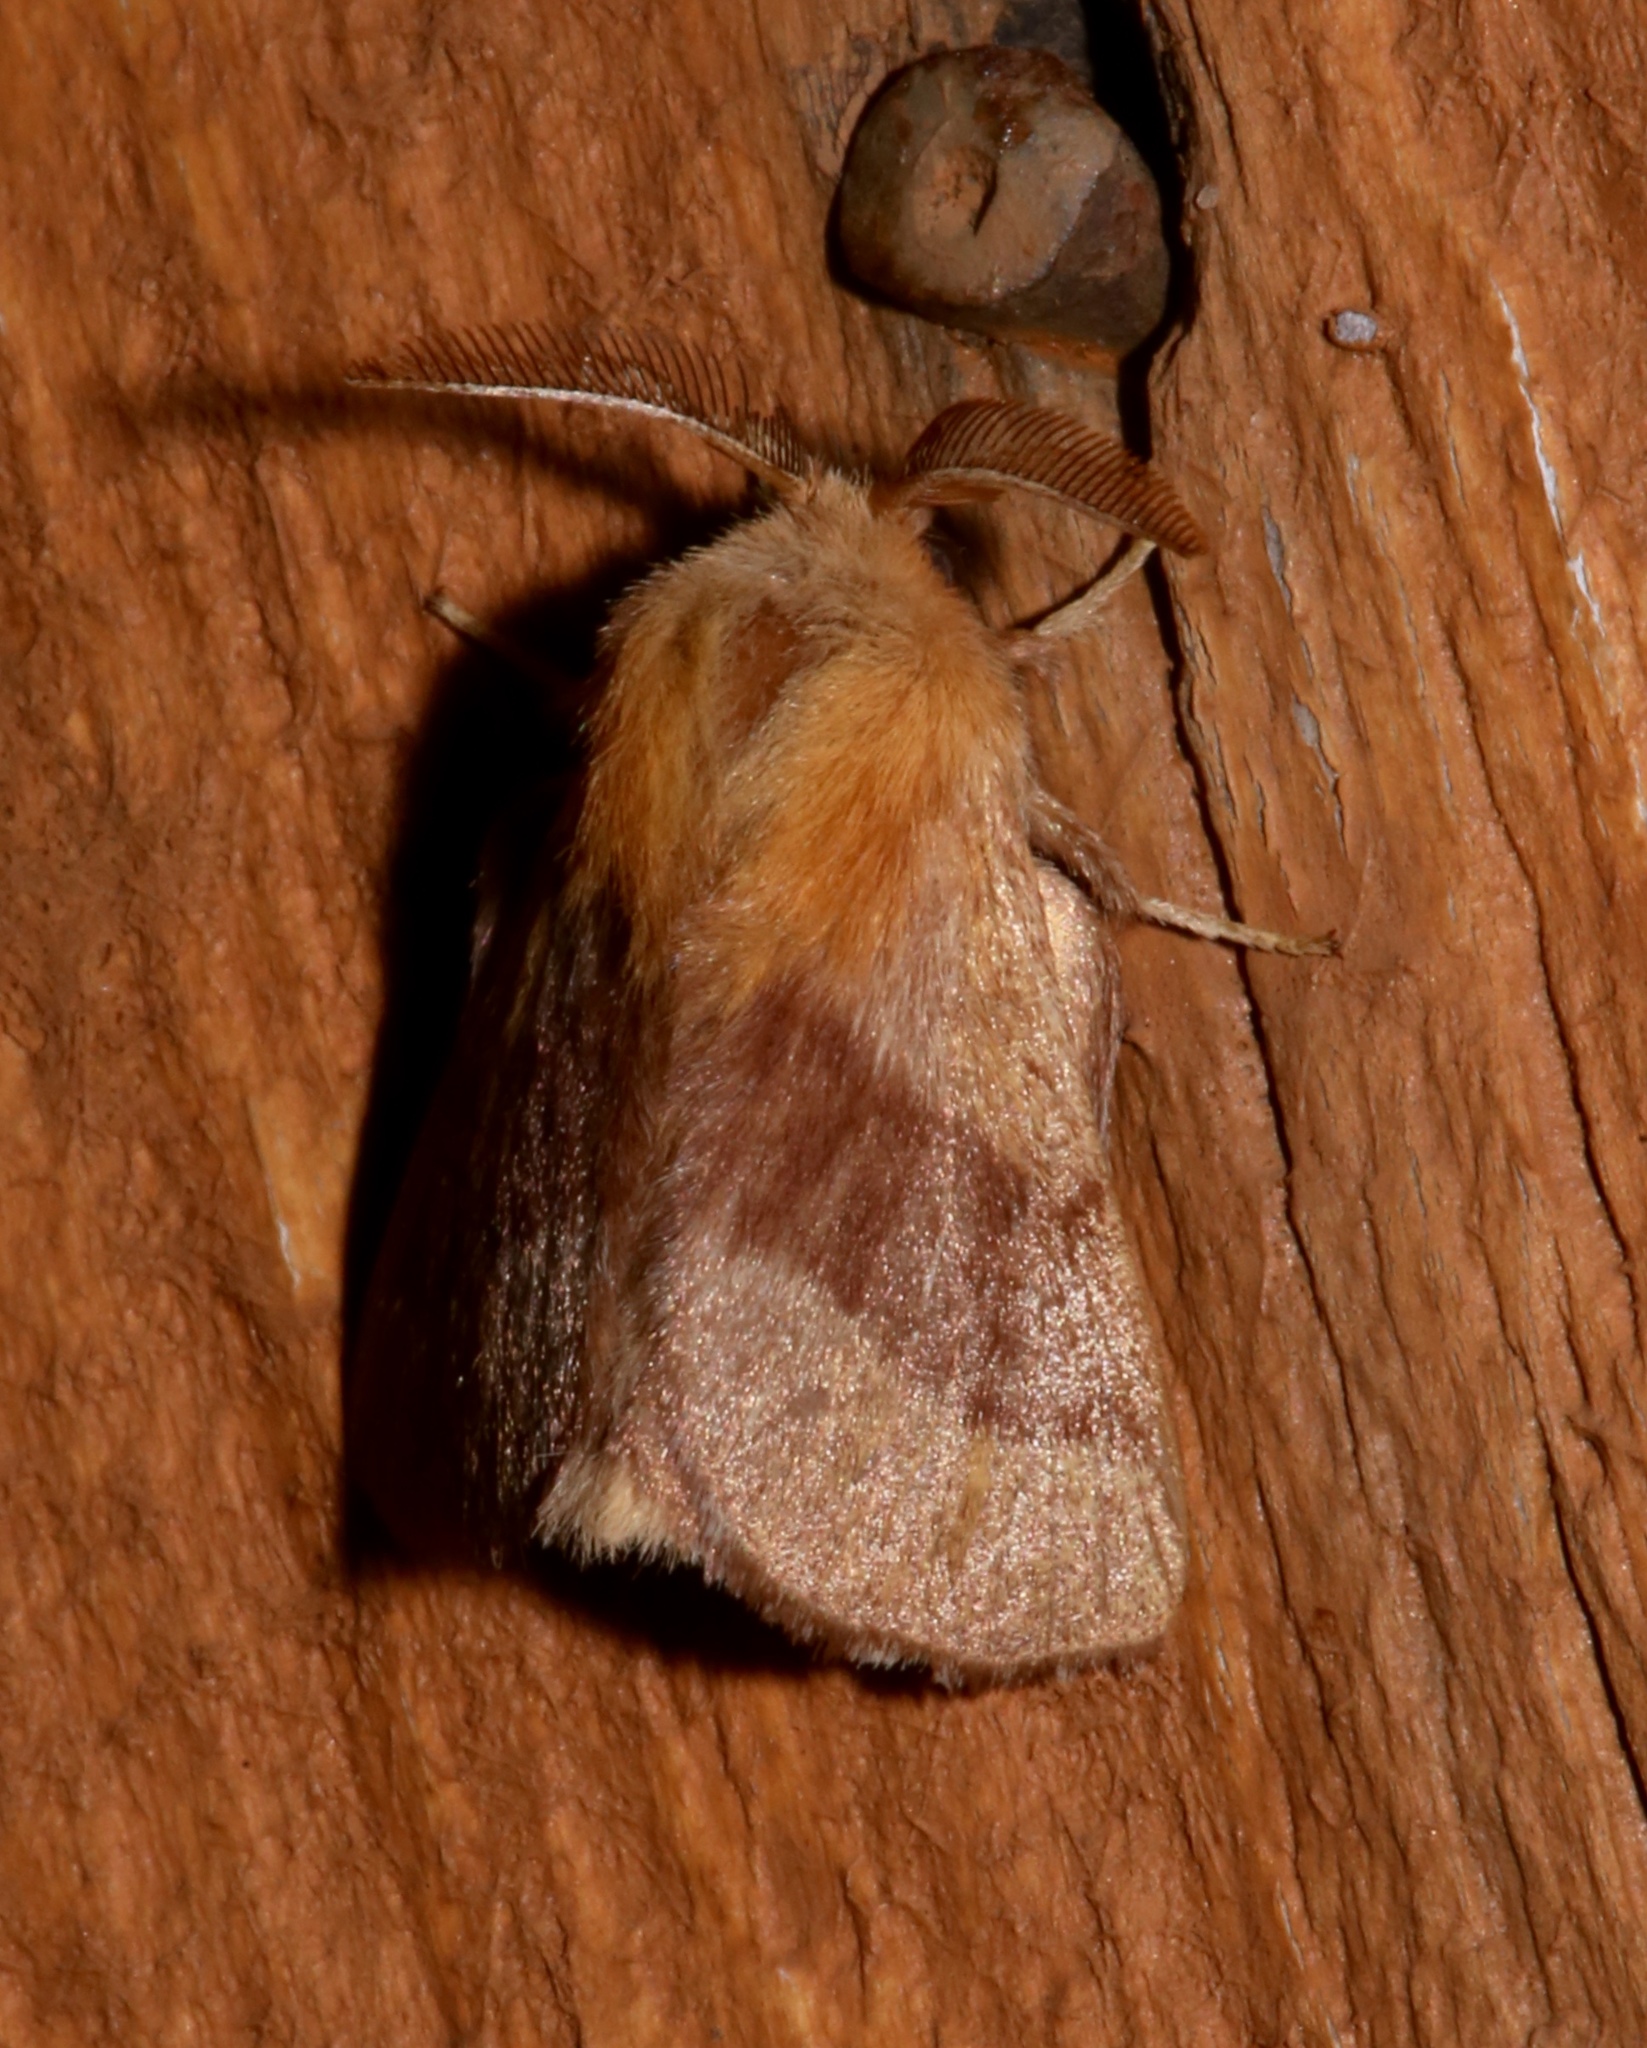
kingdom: Animalia
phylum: Arthropoda
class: Insecta
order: Lepidoptera
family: Lasiocampidae
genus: Malacosoma
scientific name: Malacosoma disstria
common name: Forest tent caterpillar
